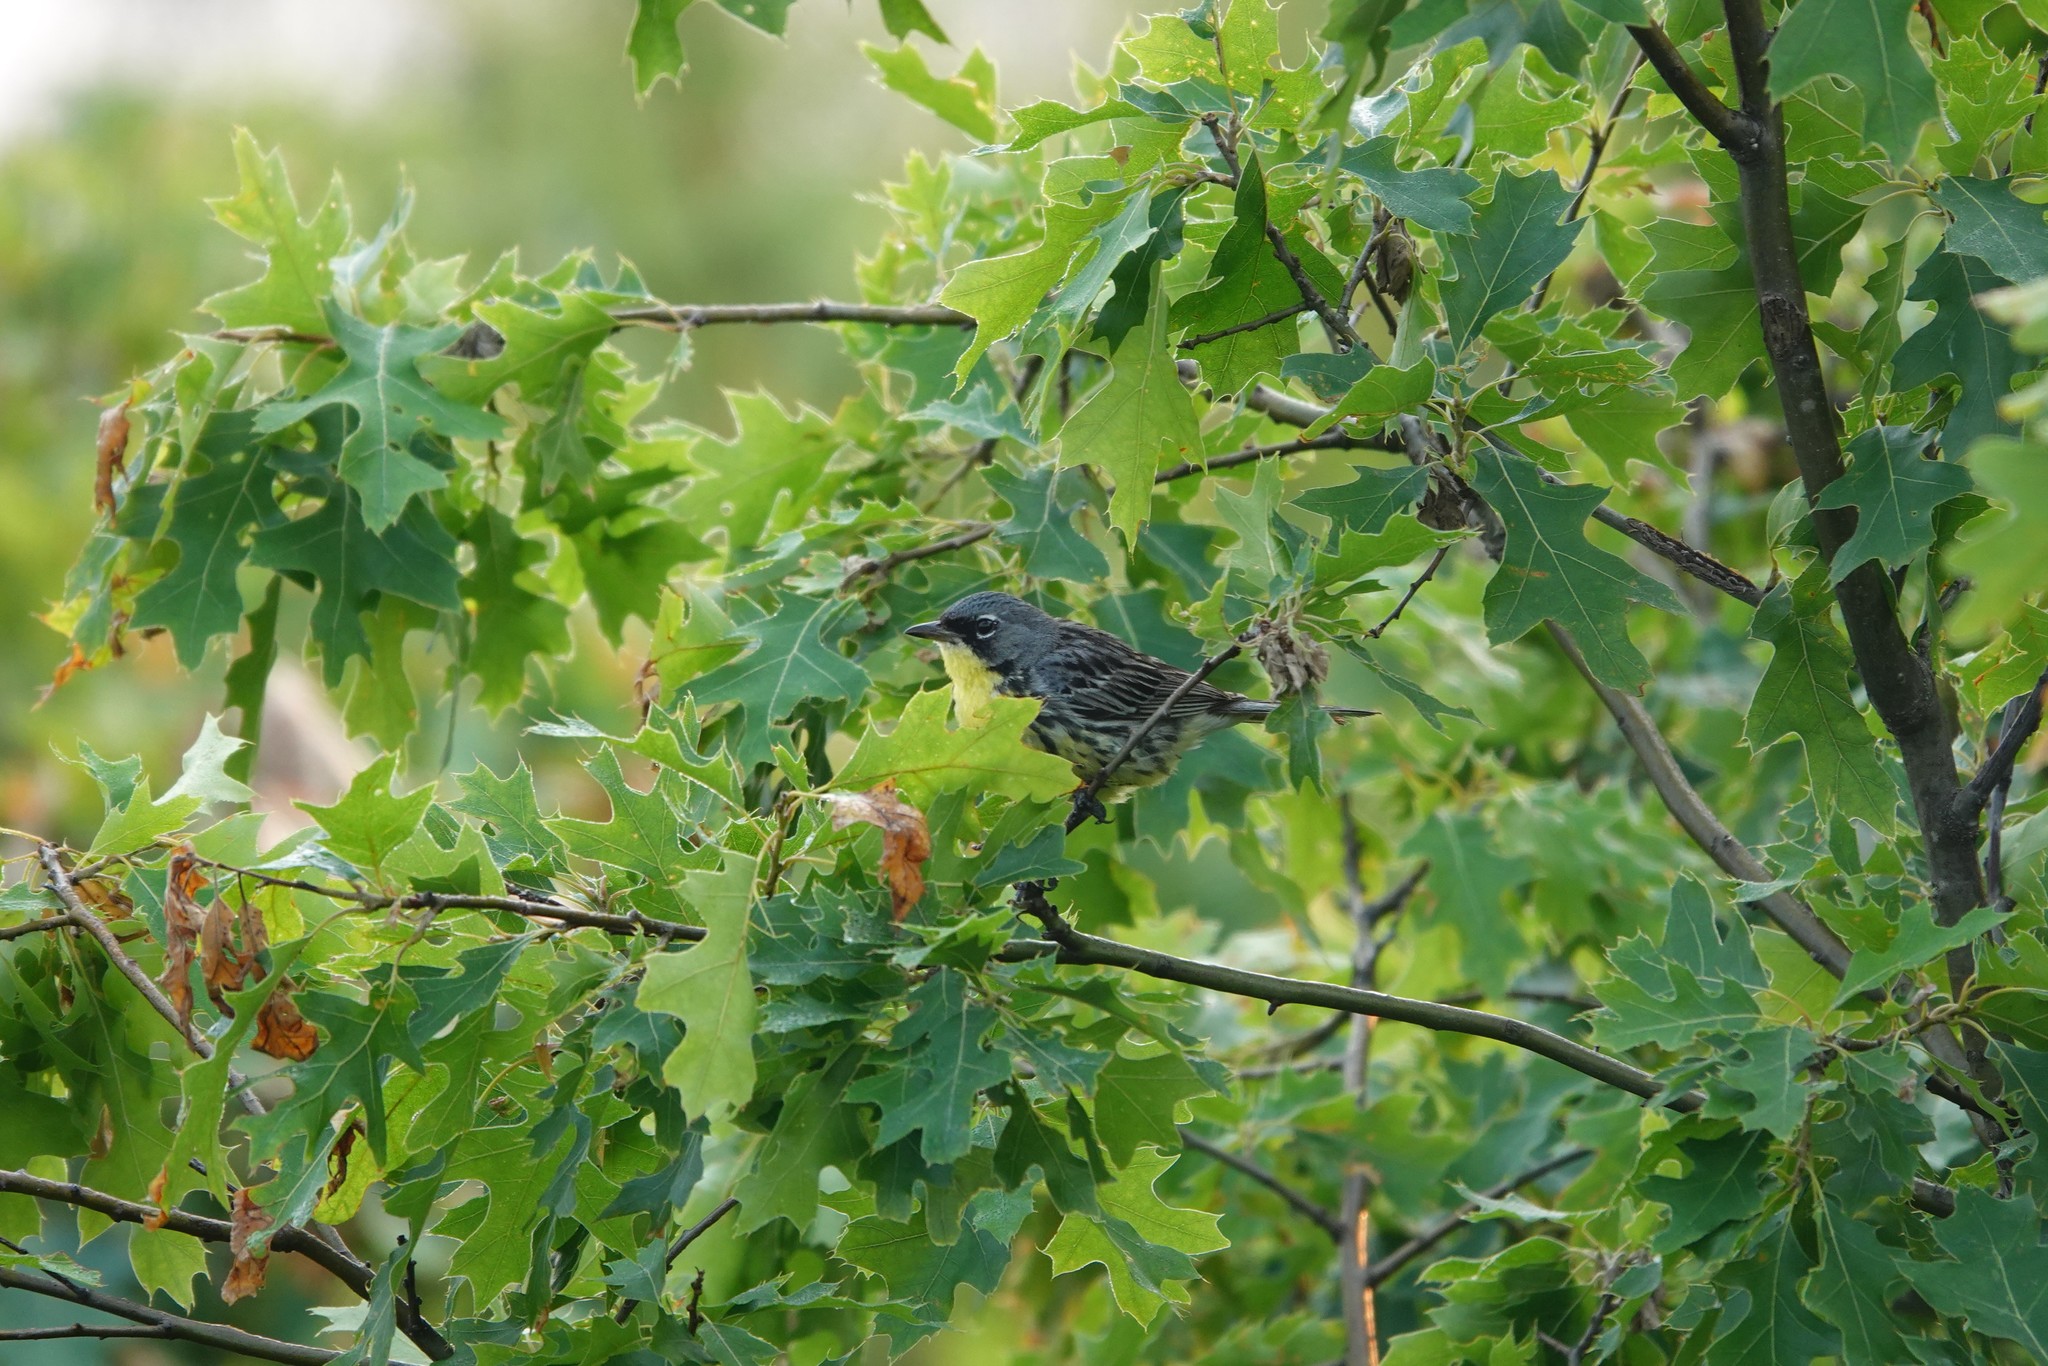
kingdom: Animalia
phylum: Chordata
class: Aves
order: Passeriformes
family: Parulidae
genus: Setophaga
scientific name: Setophaga kirtlandii
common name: Kirtland's warbler
